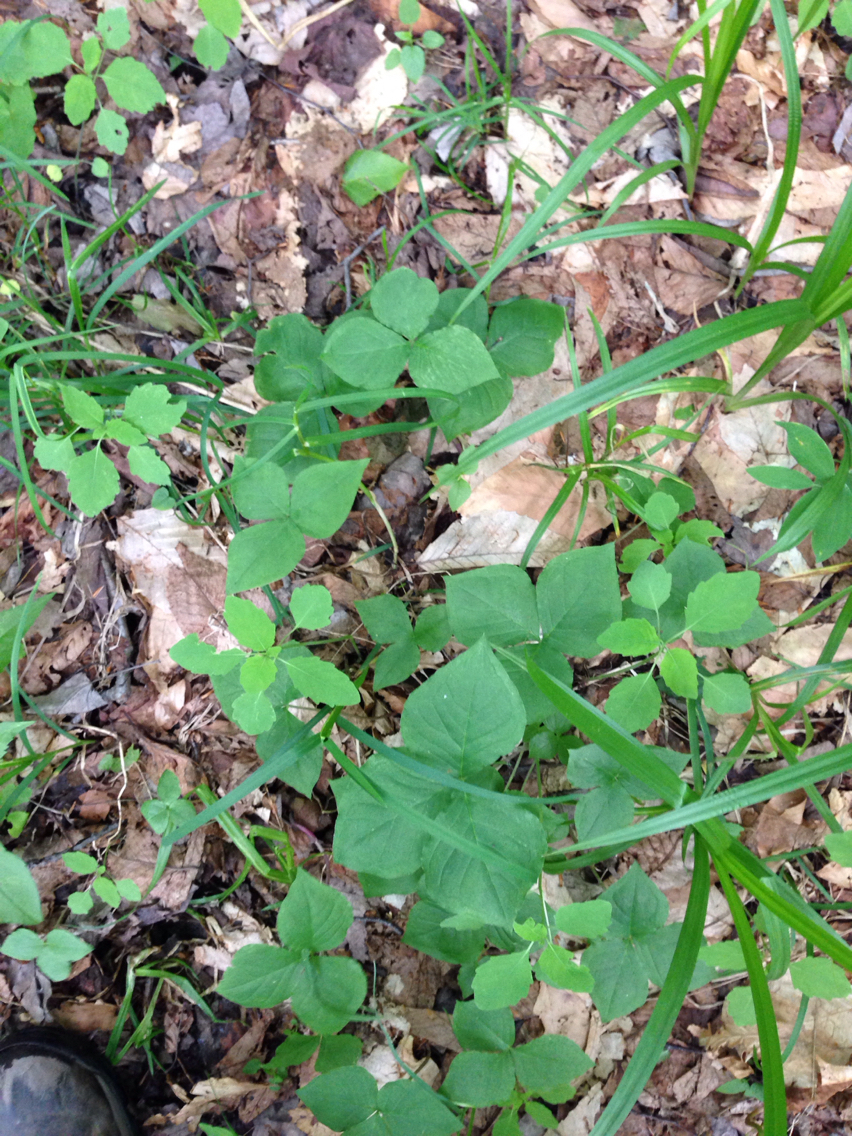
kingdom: Plantae
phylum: Tracheophyta
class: Liliopsida
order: Alismatales
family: Araceae
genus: Arisaema
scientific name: Arisaema triphyllum
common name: Jack-in-the-pulpit
